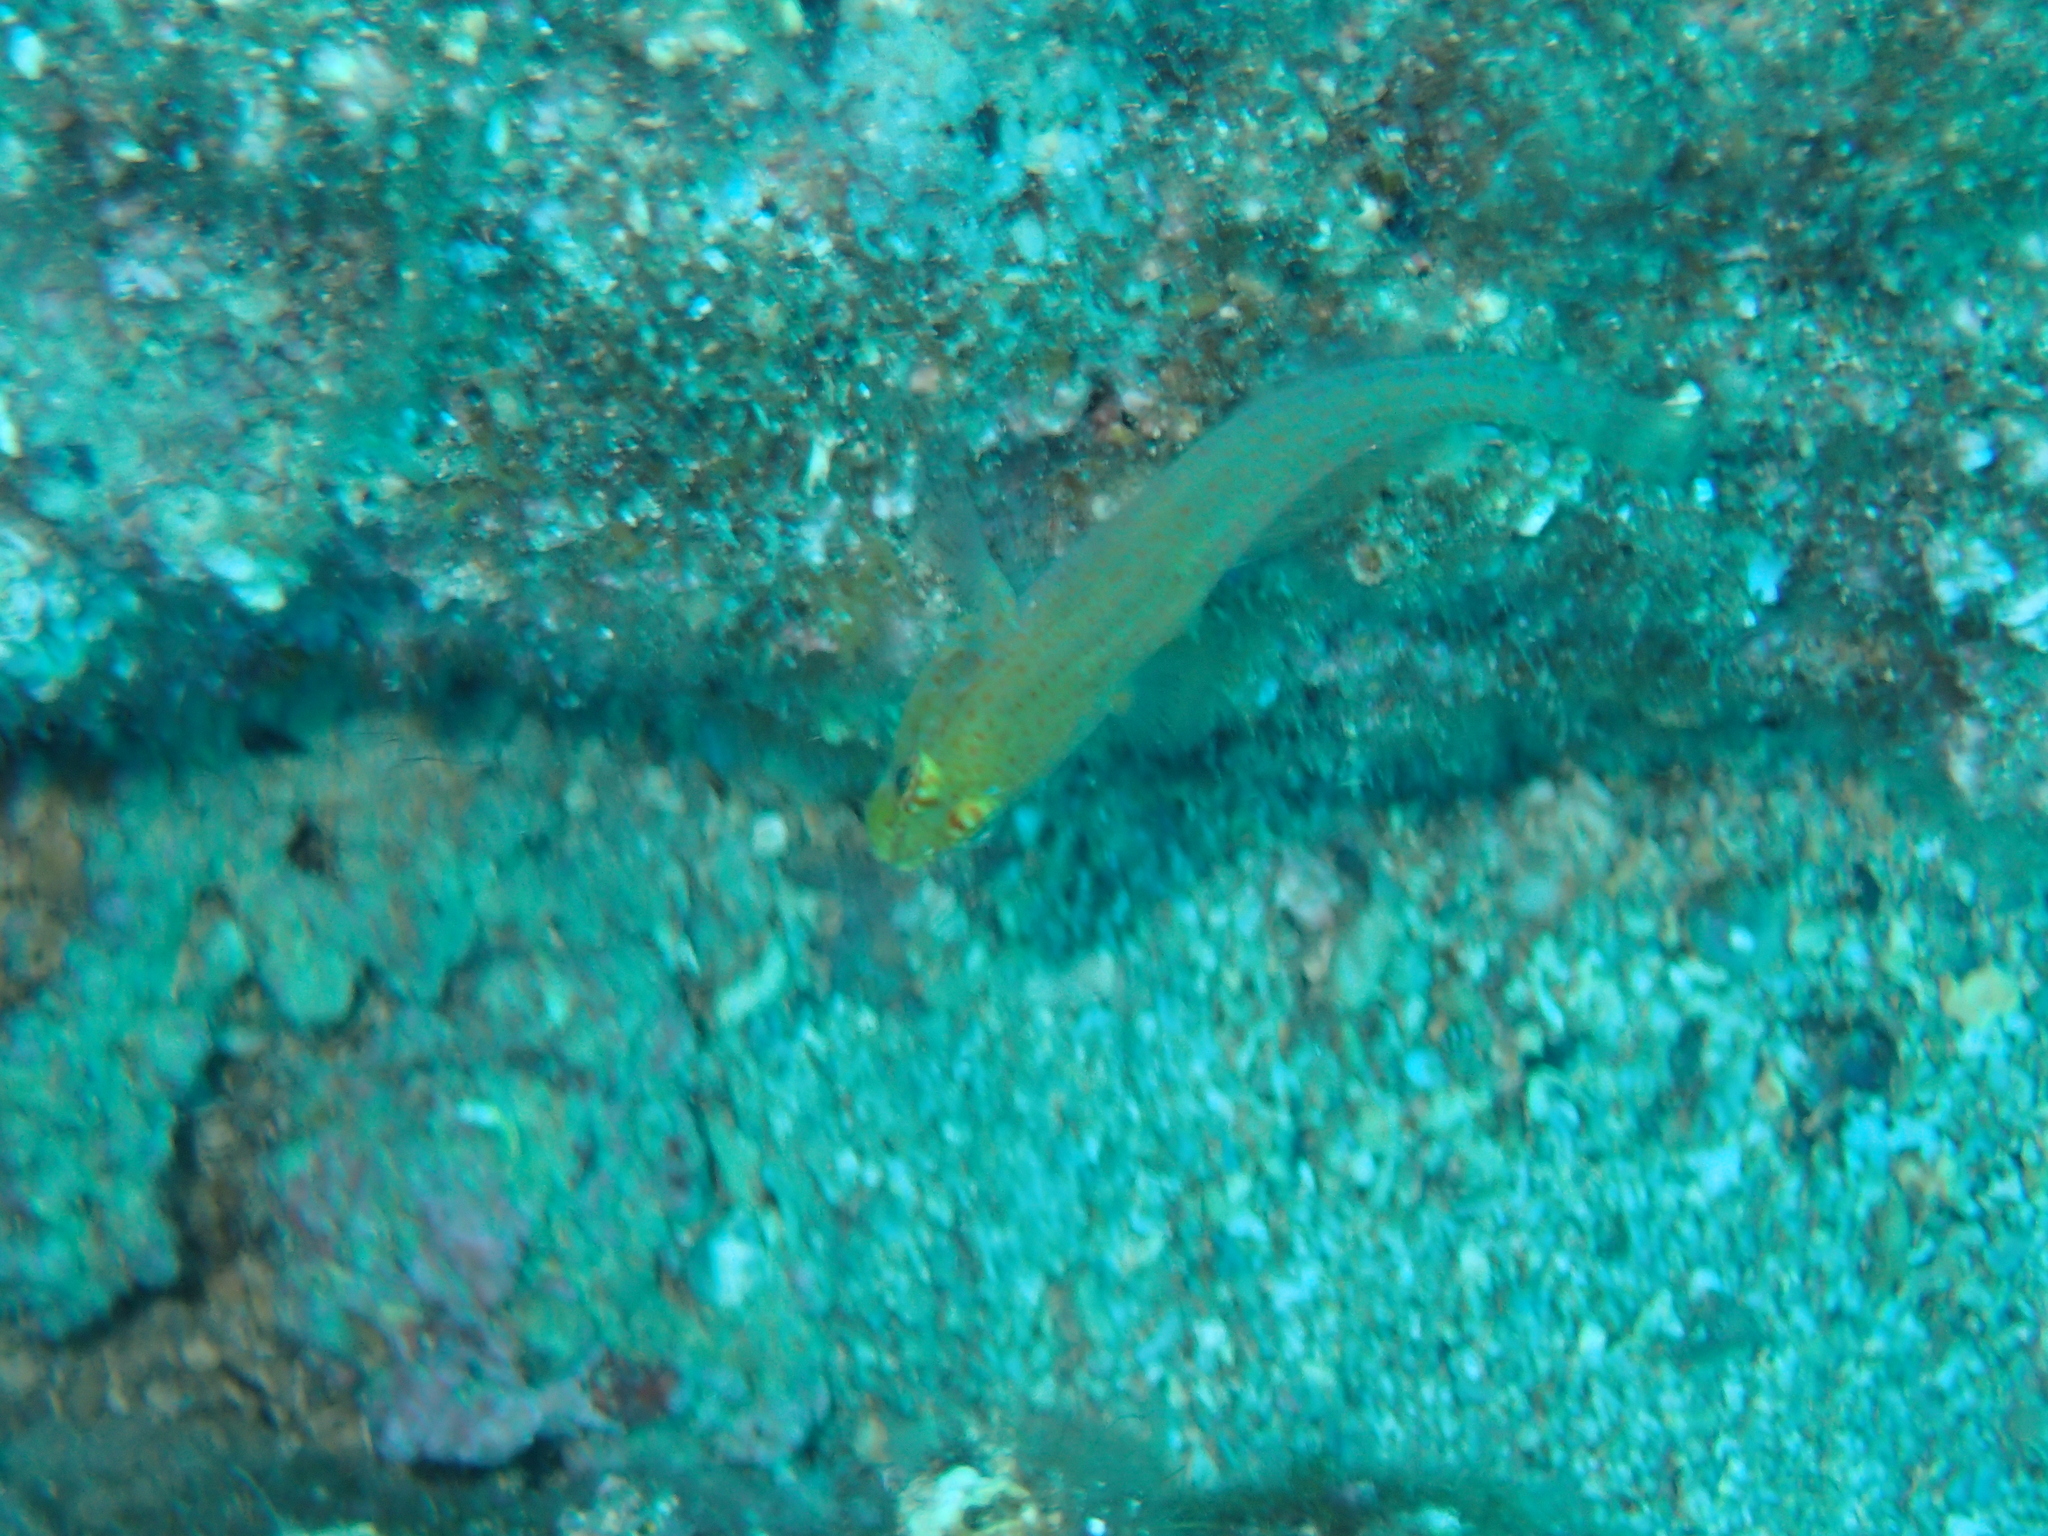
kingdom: Animalia
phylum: Chordata
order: Perciformes
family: Gobiidae
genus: Gobius
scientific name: Gobius auratus
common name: Golden goby
